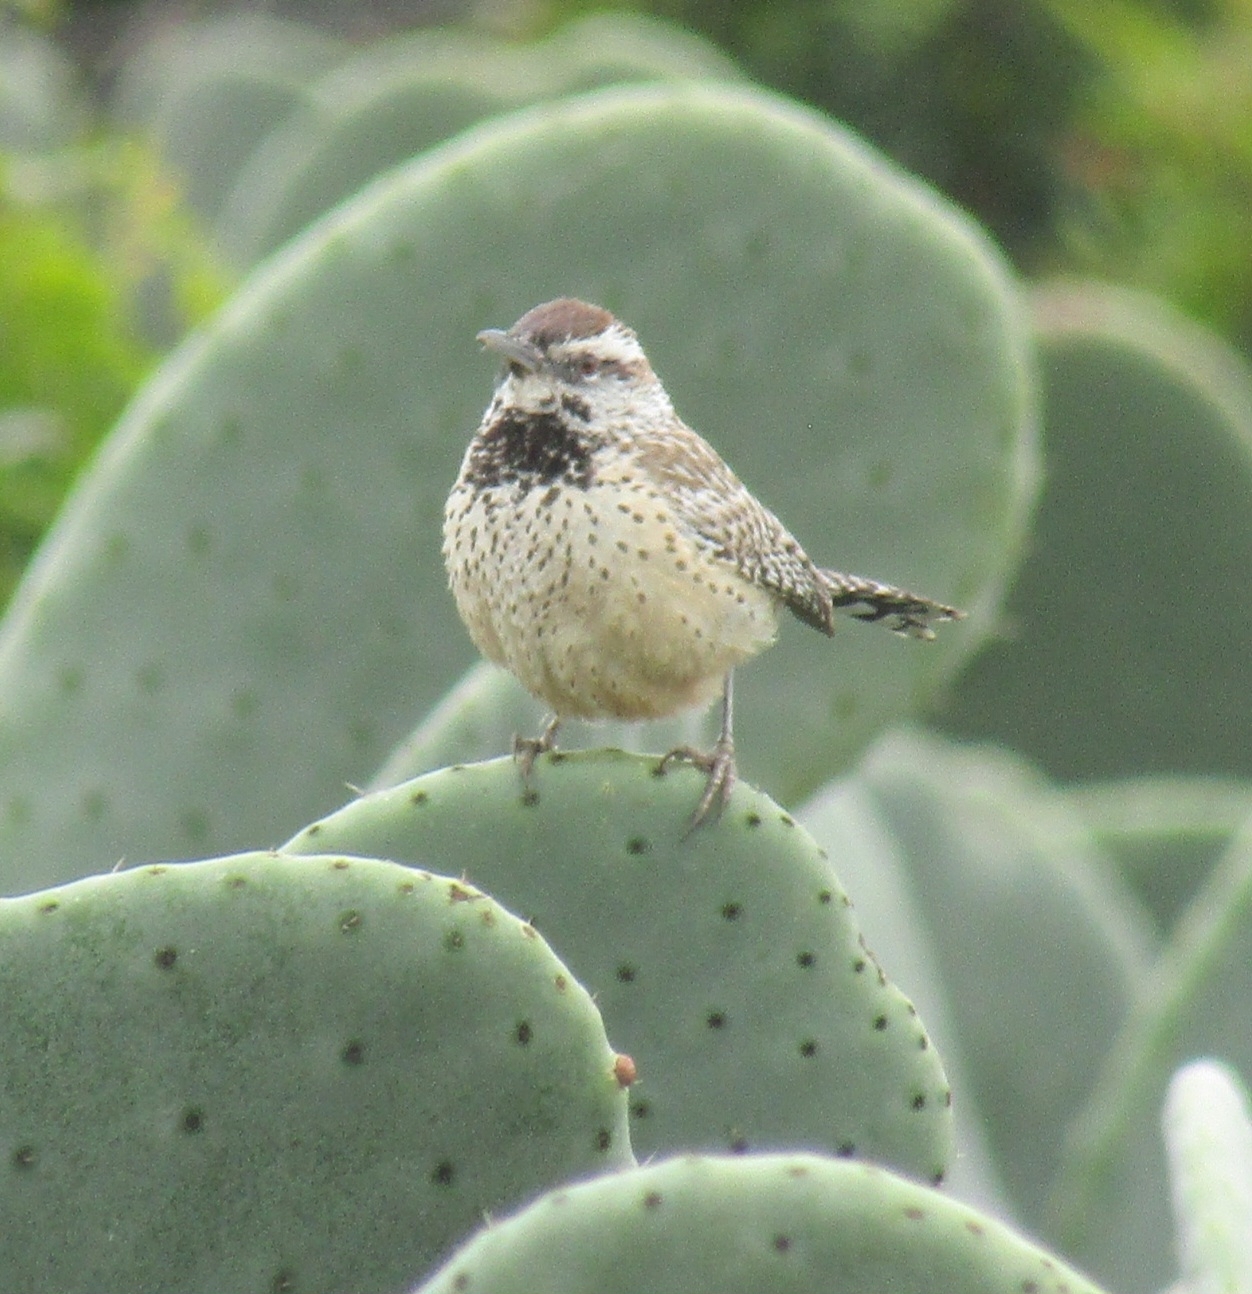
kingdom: Animalia
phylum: Chordata
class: Aves
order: Passeriformes
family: Troglodytidae
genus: Campylorhynchus
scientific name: Campylorhynchus brunneicapillus
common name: Cactus wren
